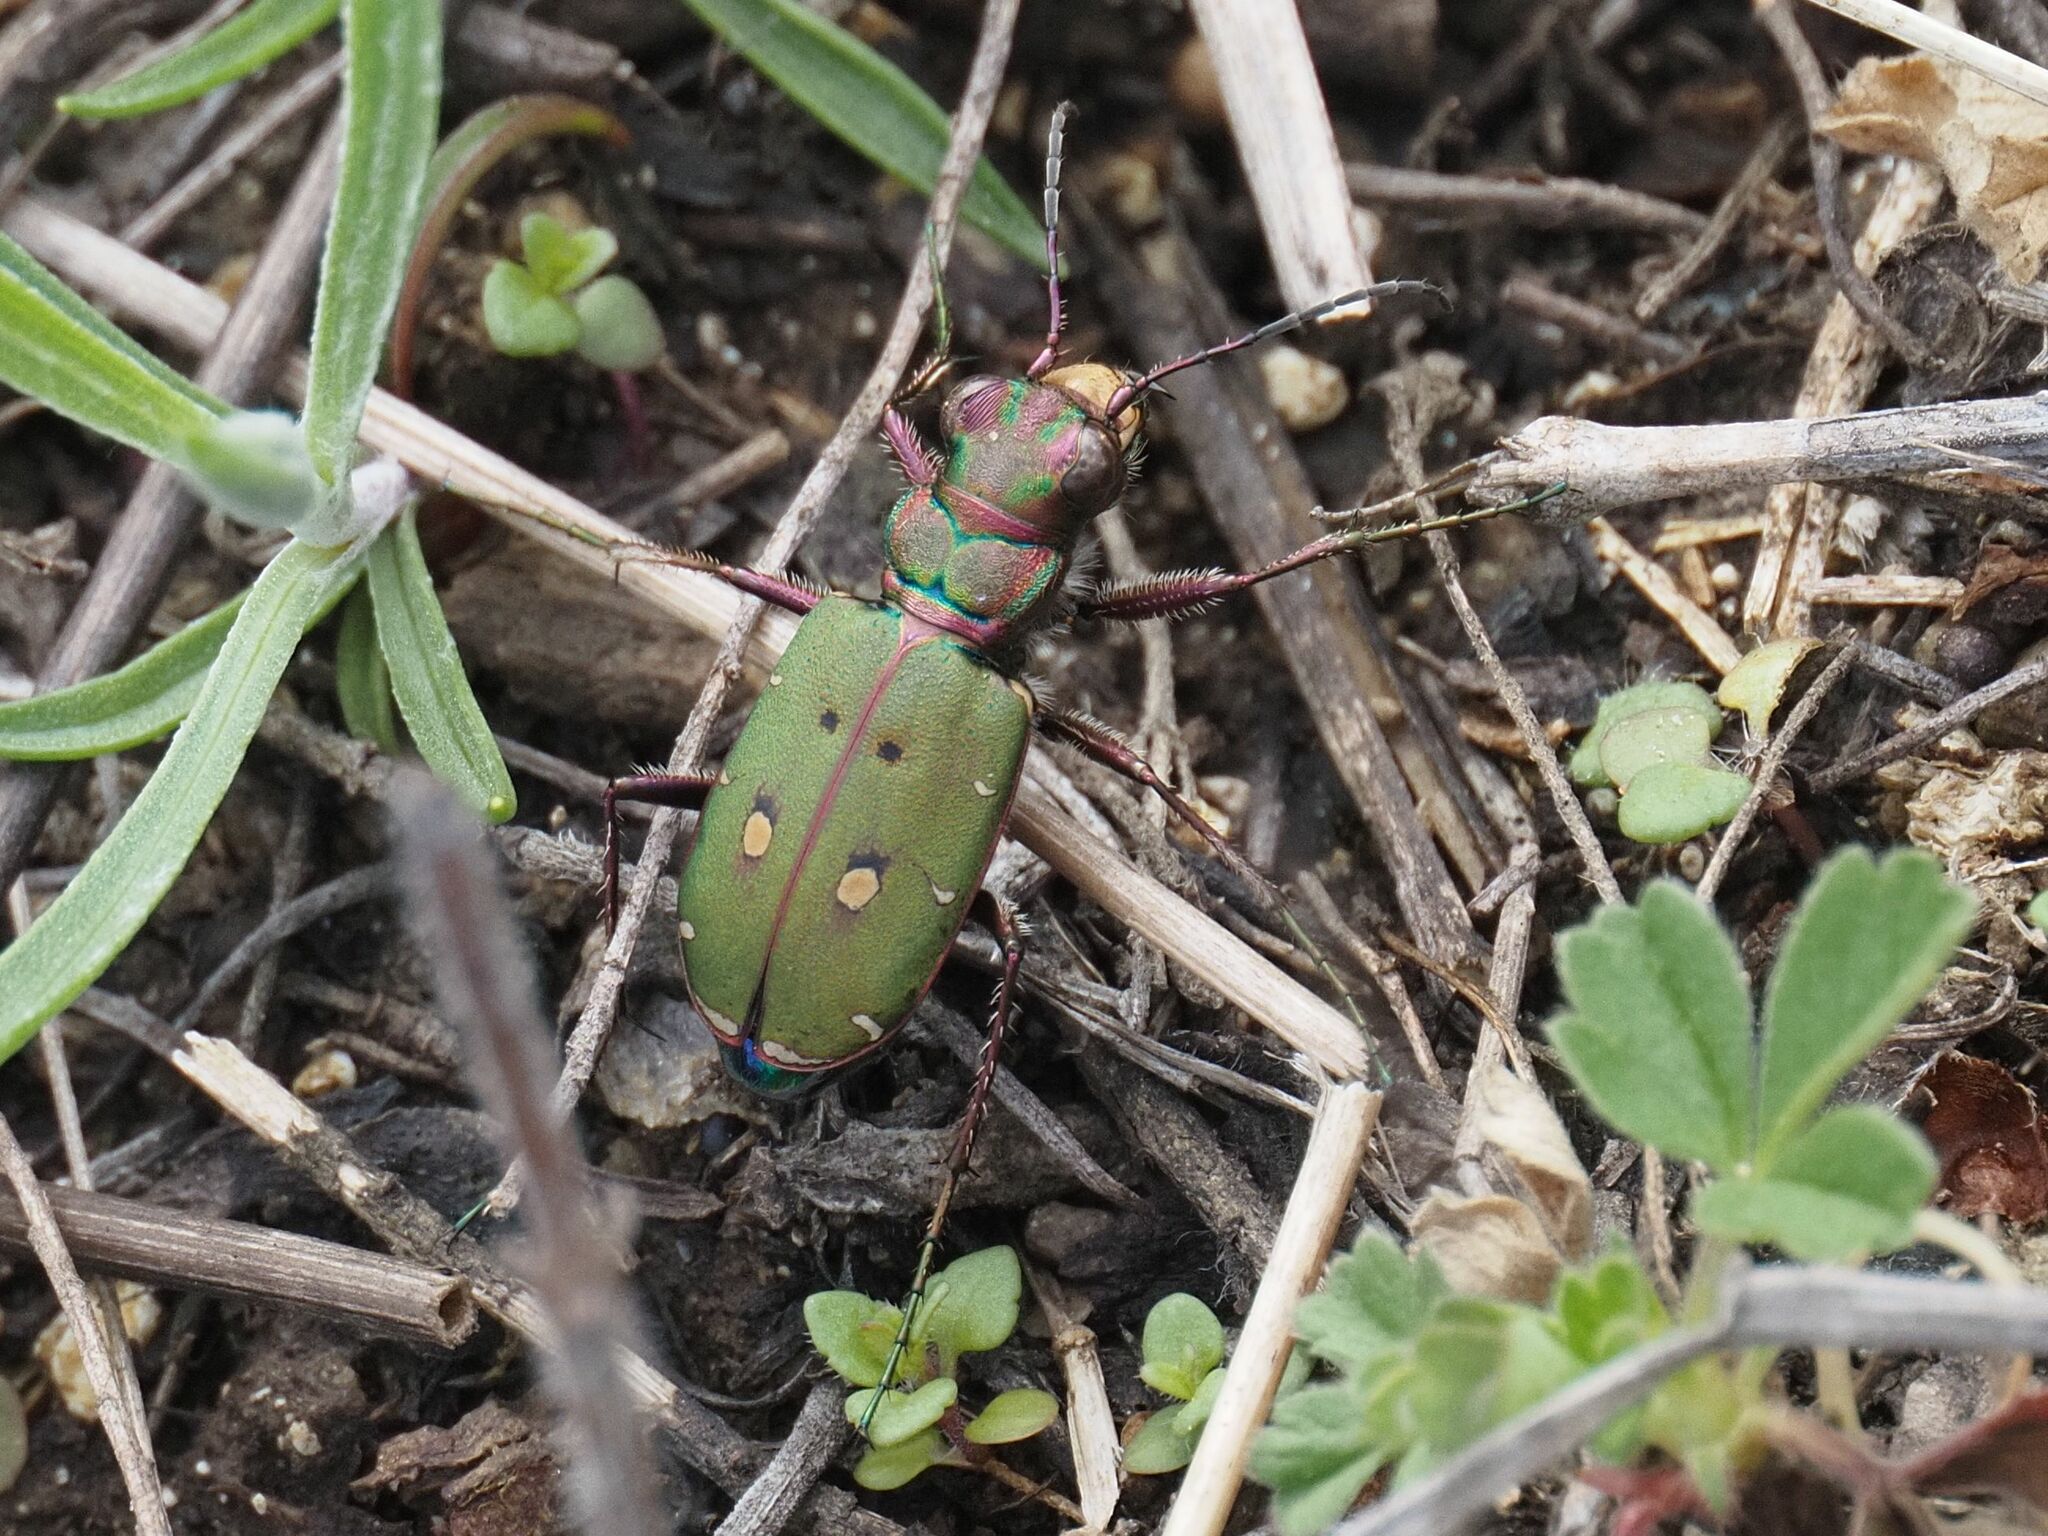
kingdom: Animalia
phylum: Arthropoda
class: Insecta
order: Coleoptera
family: Carabidae
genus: Cicindela
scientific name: Cicindela campestris
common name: Common tiger beetle
